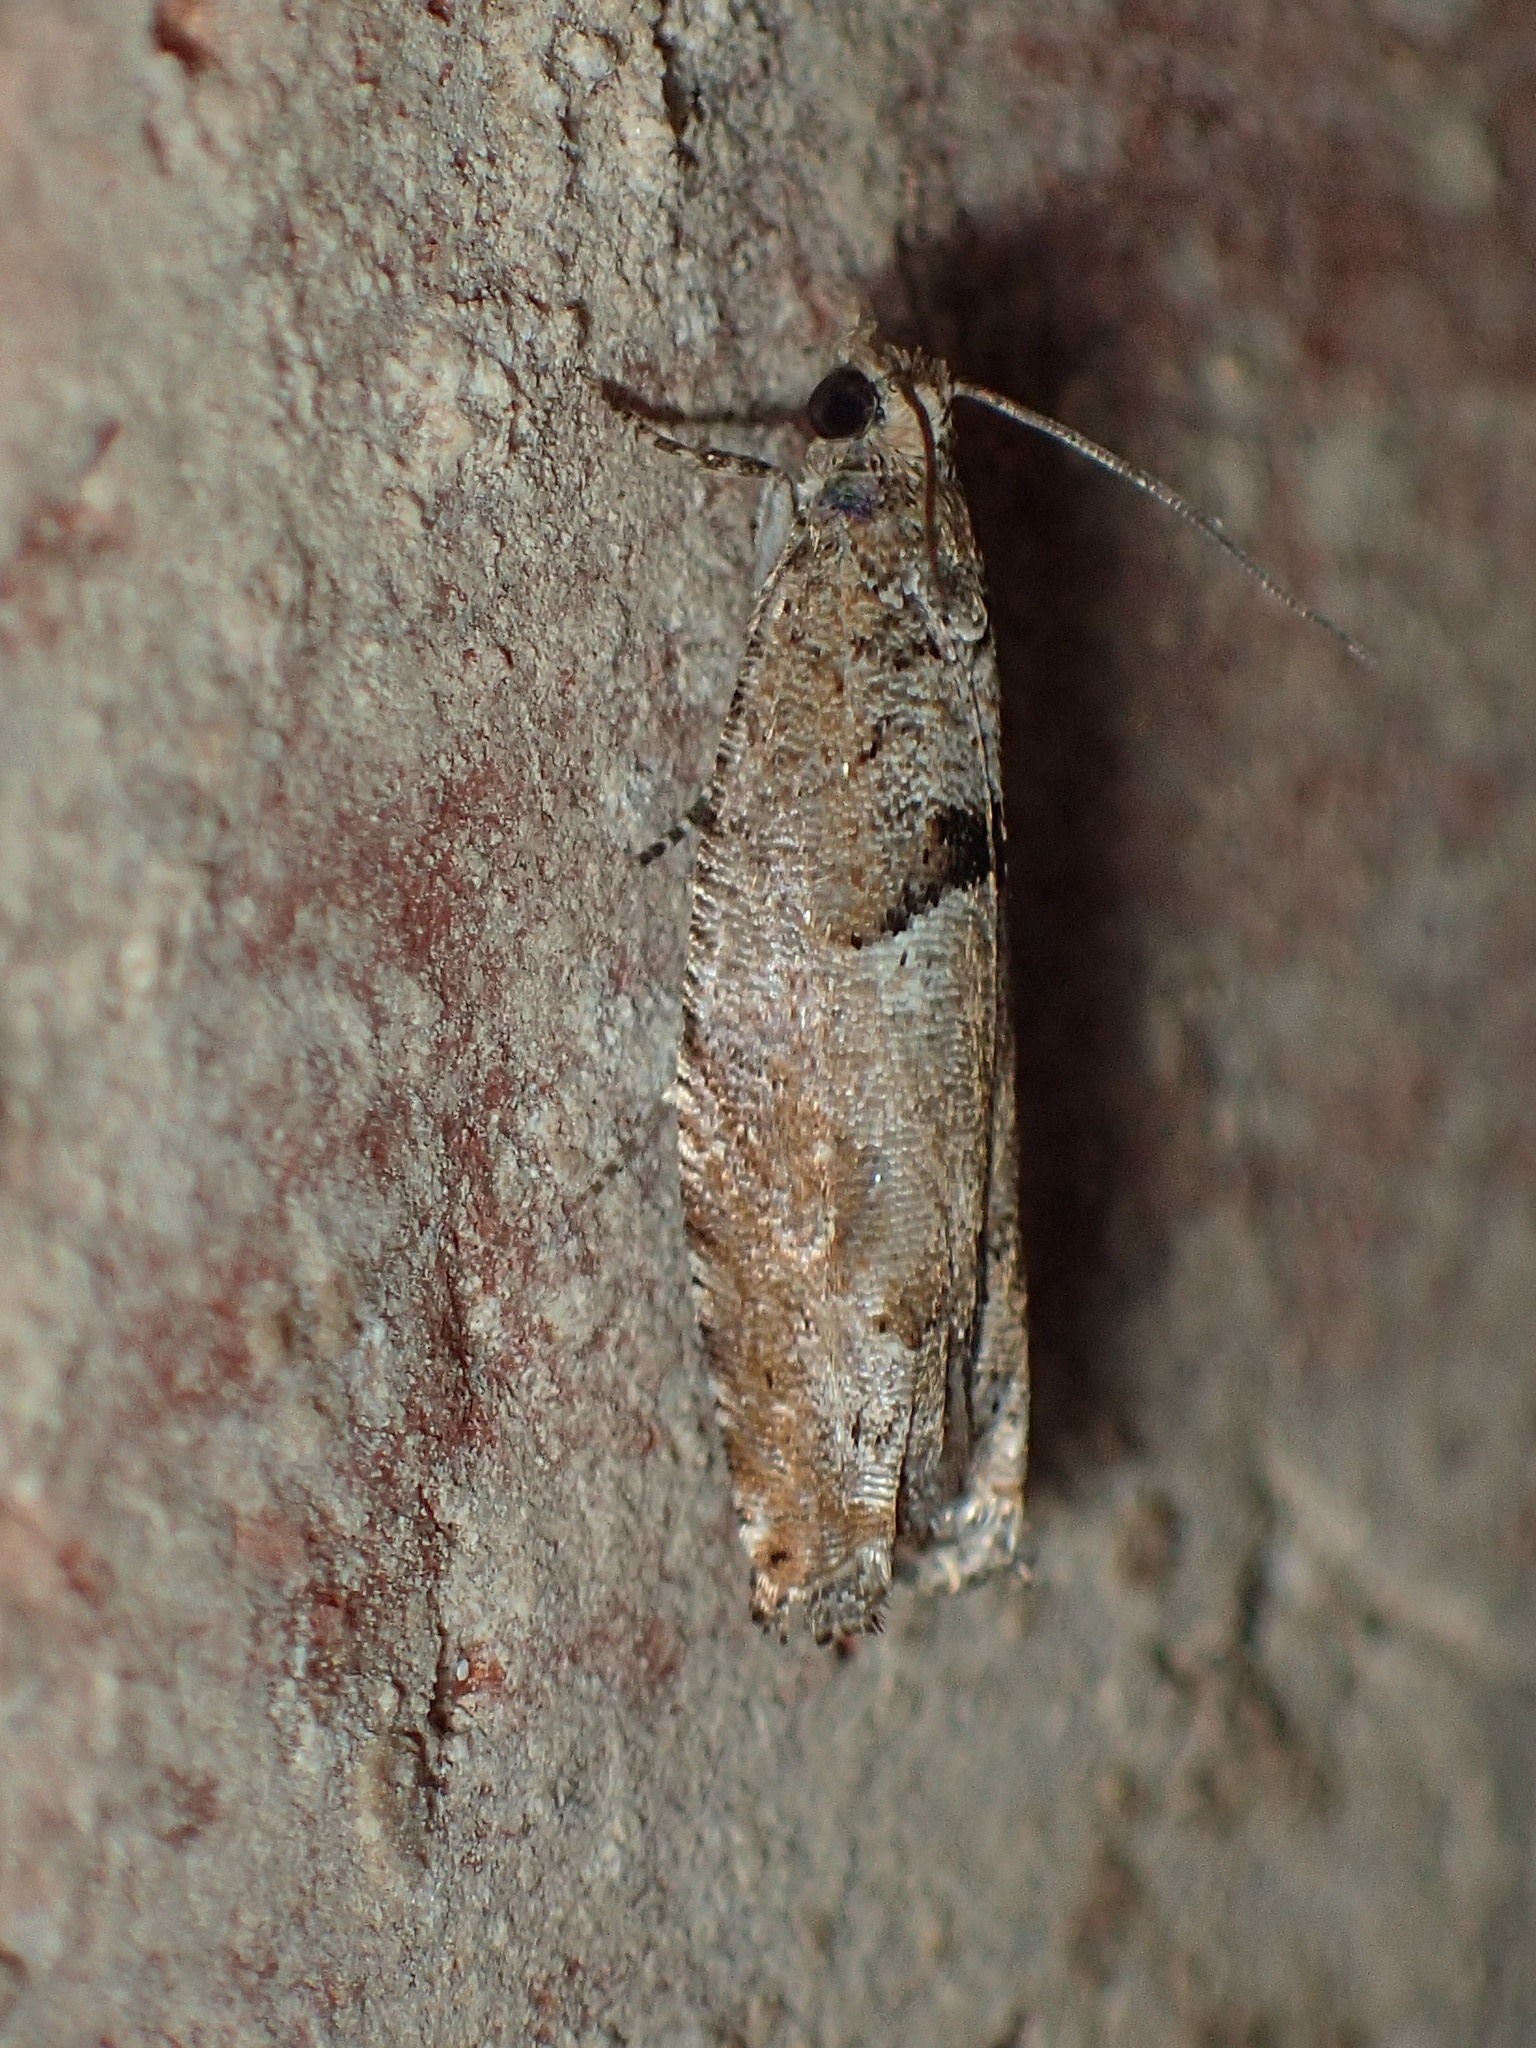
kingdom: Animalia
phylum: Arthropoda
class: Insecta
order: Lepidoptera
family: Tortricidae
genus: Pseudexentera
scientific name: Pseudexentera sepia
